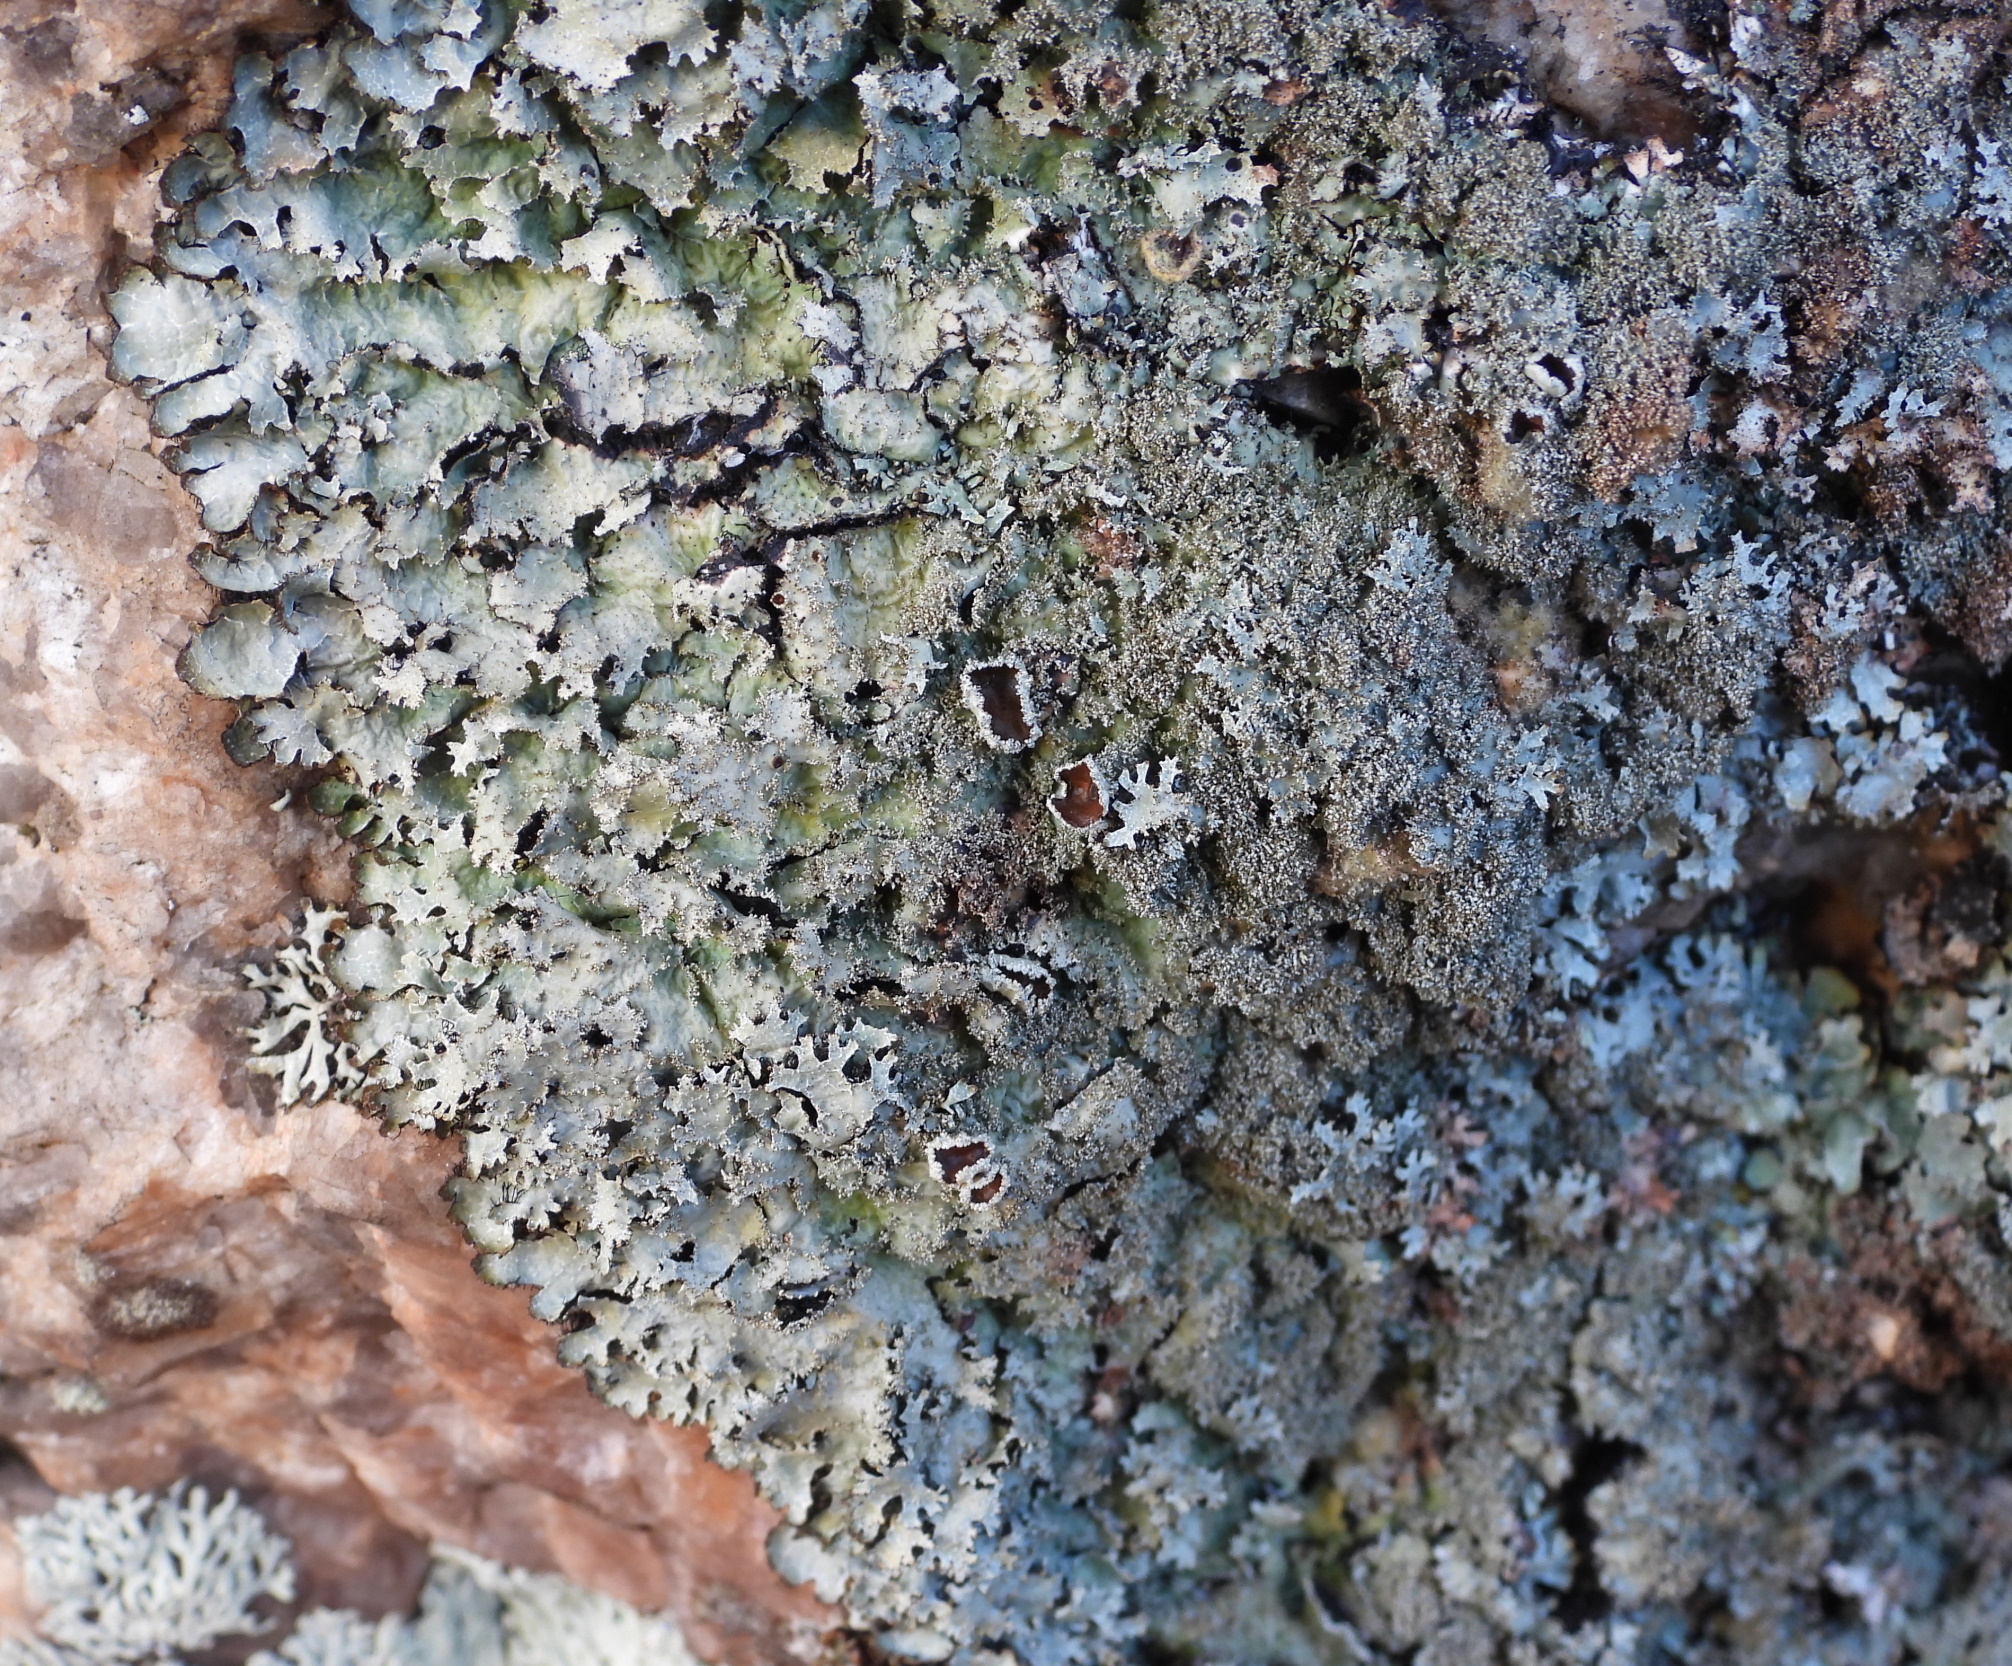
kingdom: Fungi
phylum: Ascomycota
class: Lecanoromycetes
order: Lecanorales
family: Parmeliaceae
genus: Parmelia
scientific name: Parmelia saxatilis
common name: Salted shield lichen
